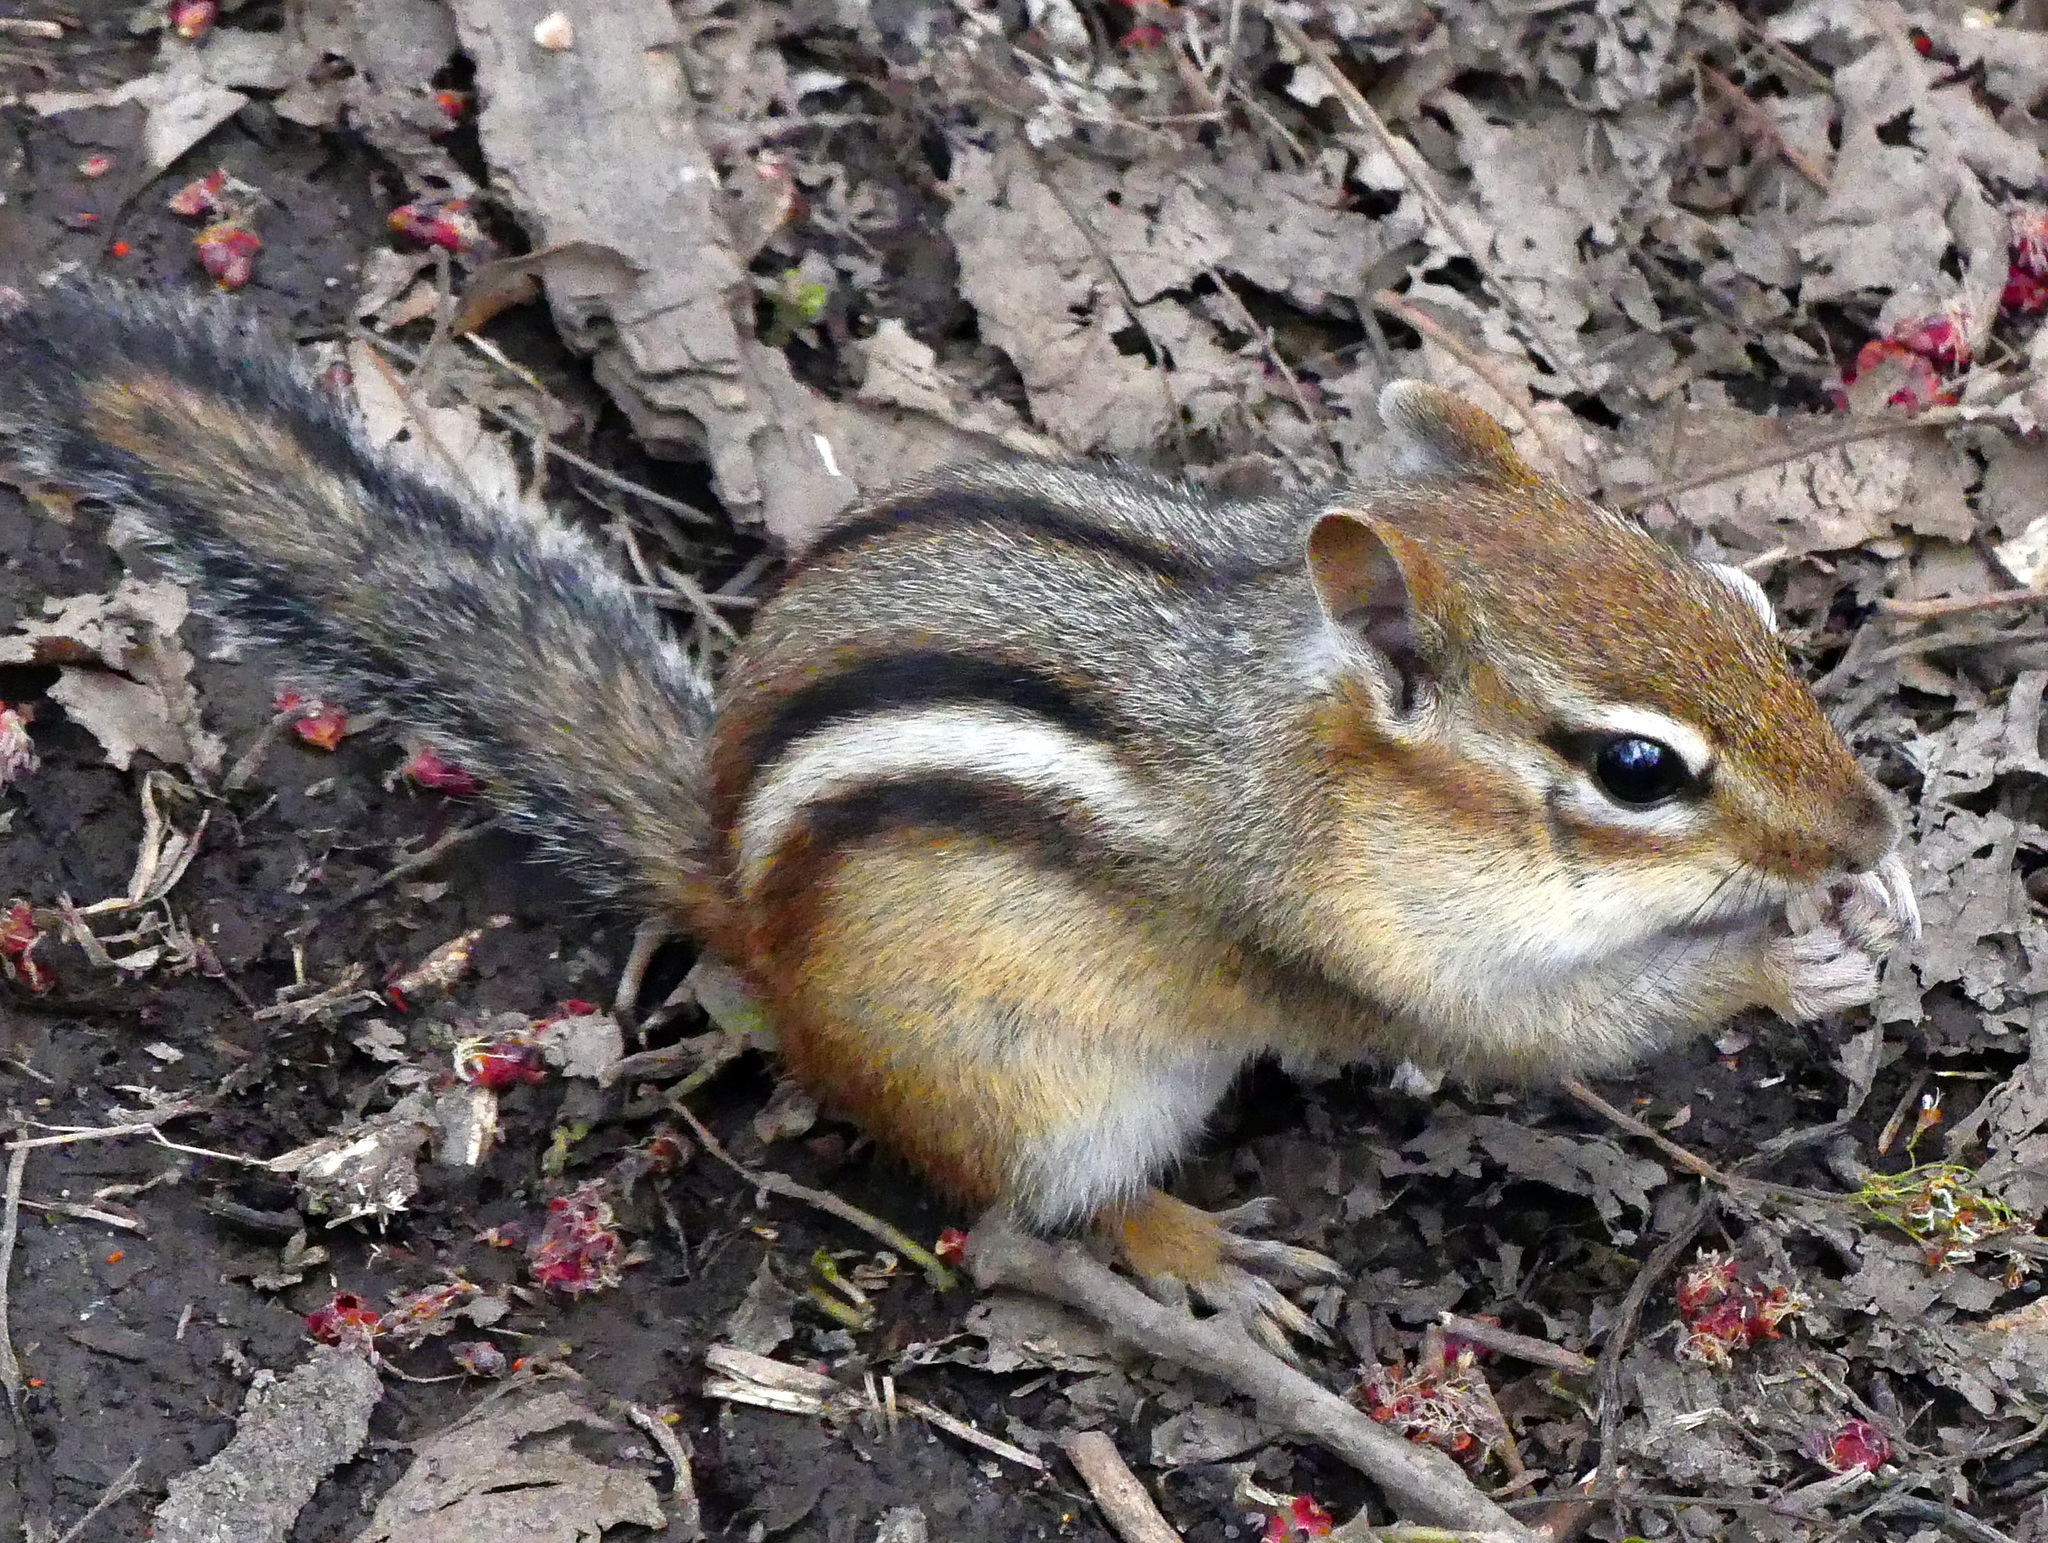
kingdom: Animalia
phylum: Chordata
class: Mammalia
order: Rodentia
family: Sciuridae
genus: Tamias
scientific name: Tamias striatus
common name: Eastern chipmunk
